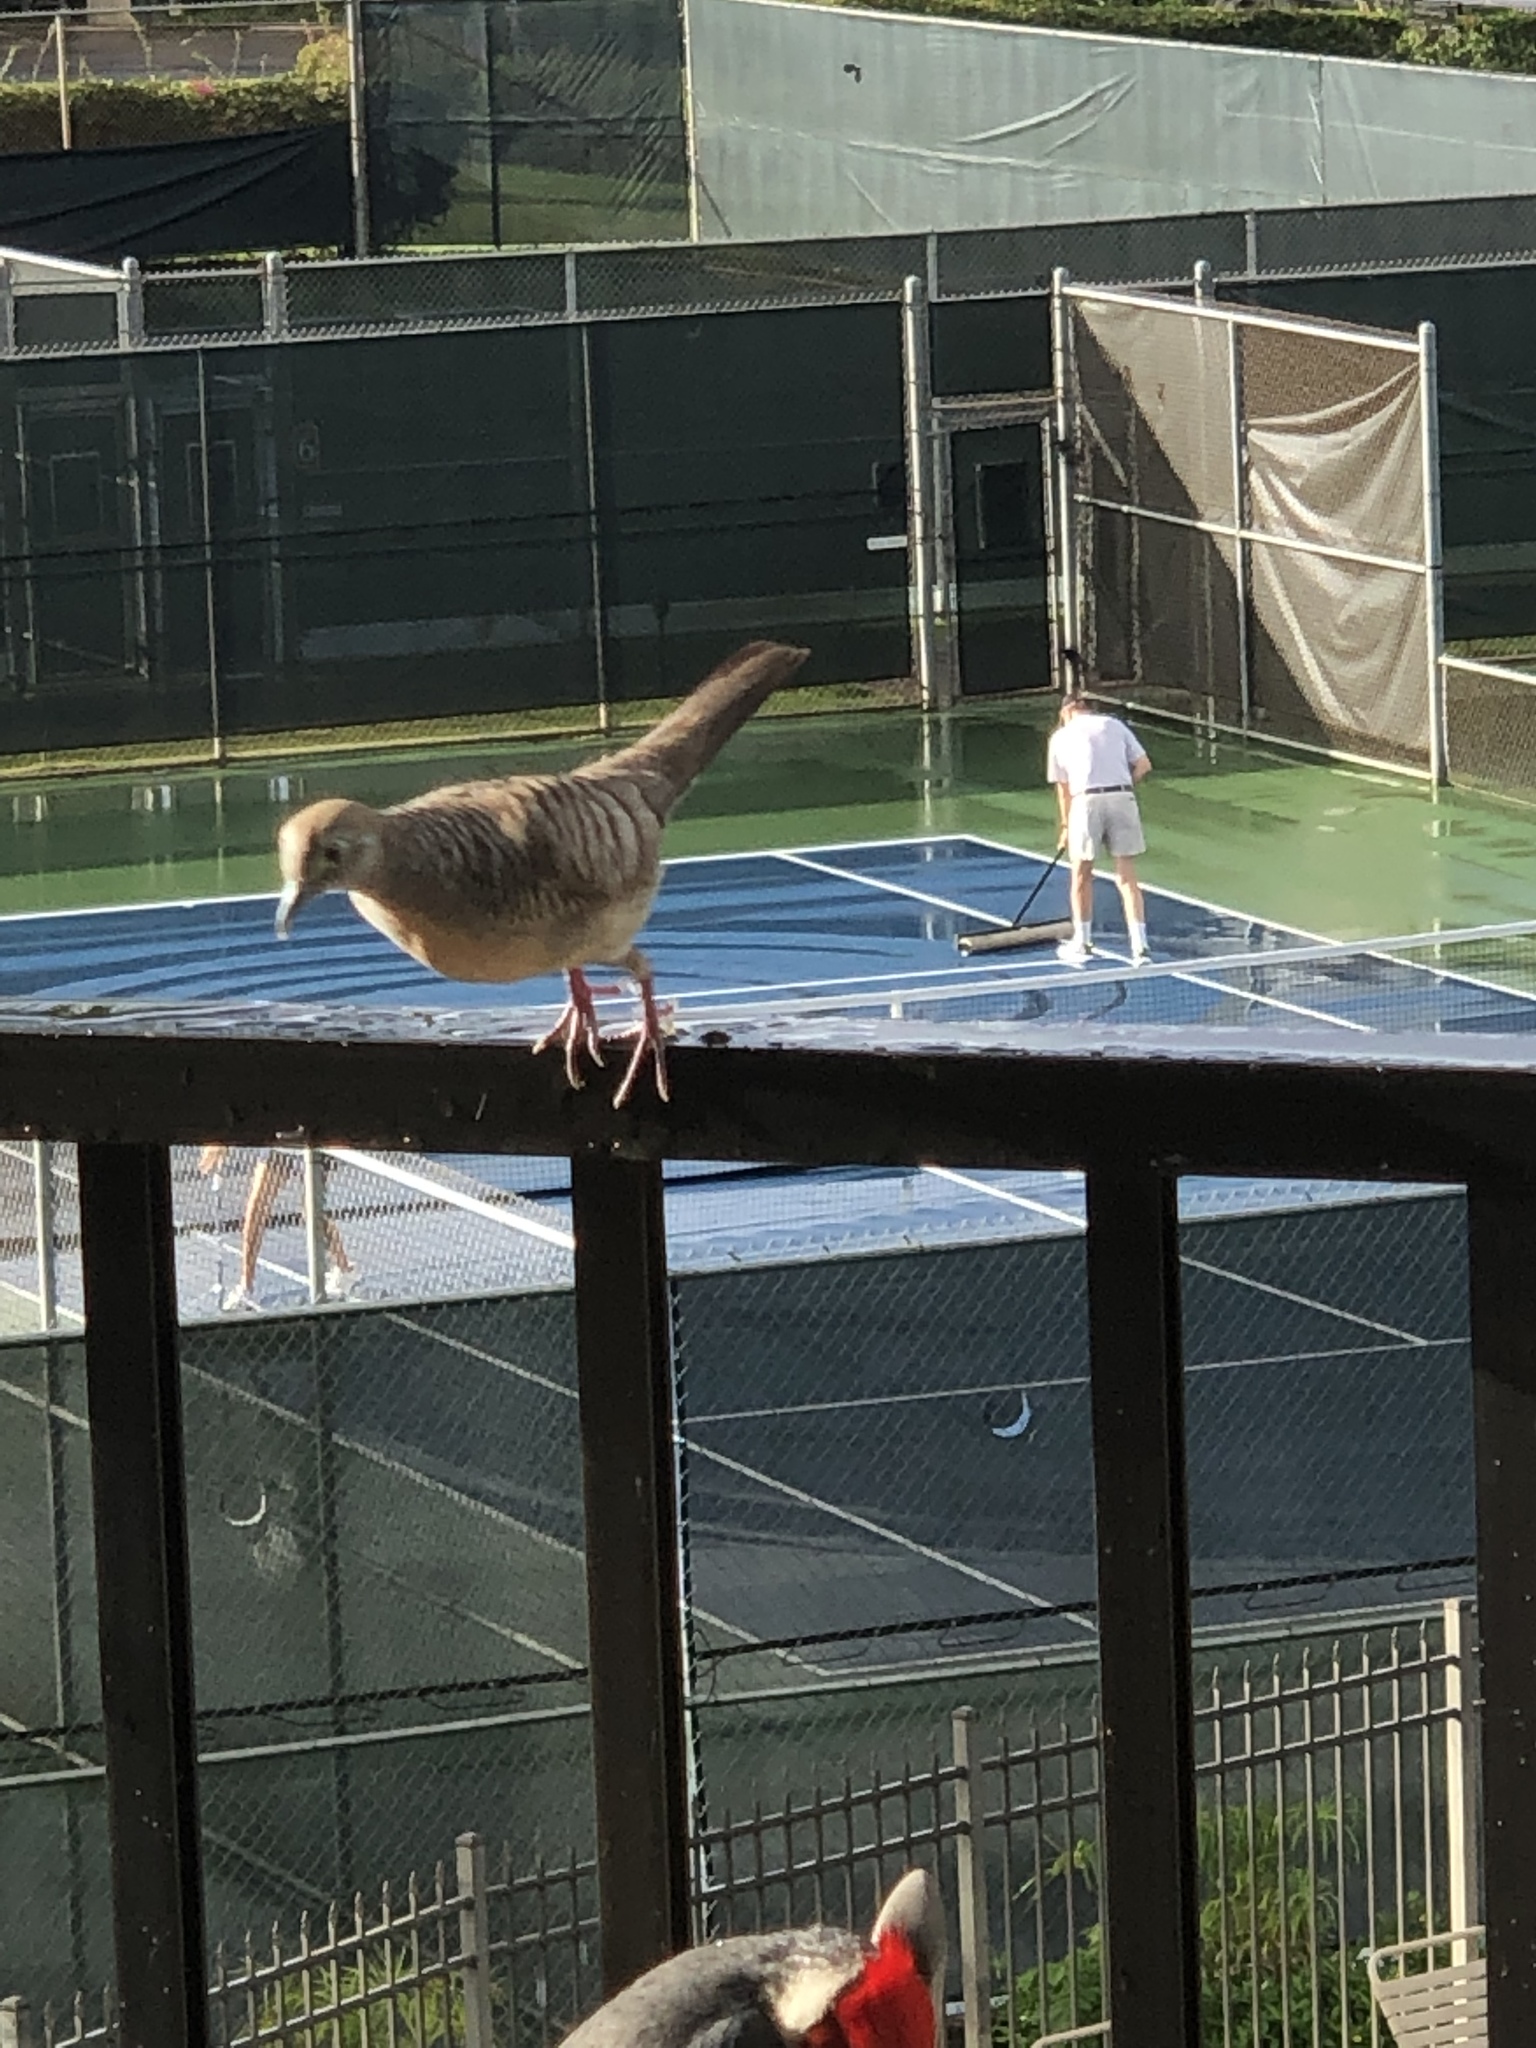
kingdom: Animalia
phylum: Chordata
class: Aves
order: Columbiformes
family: Columbidae
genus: Geopelia
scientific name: Geopelia striata
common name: Zebra dove
